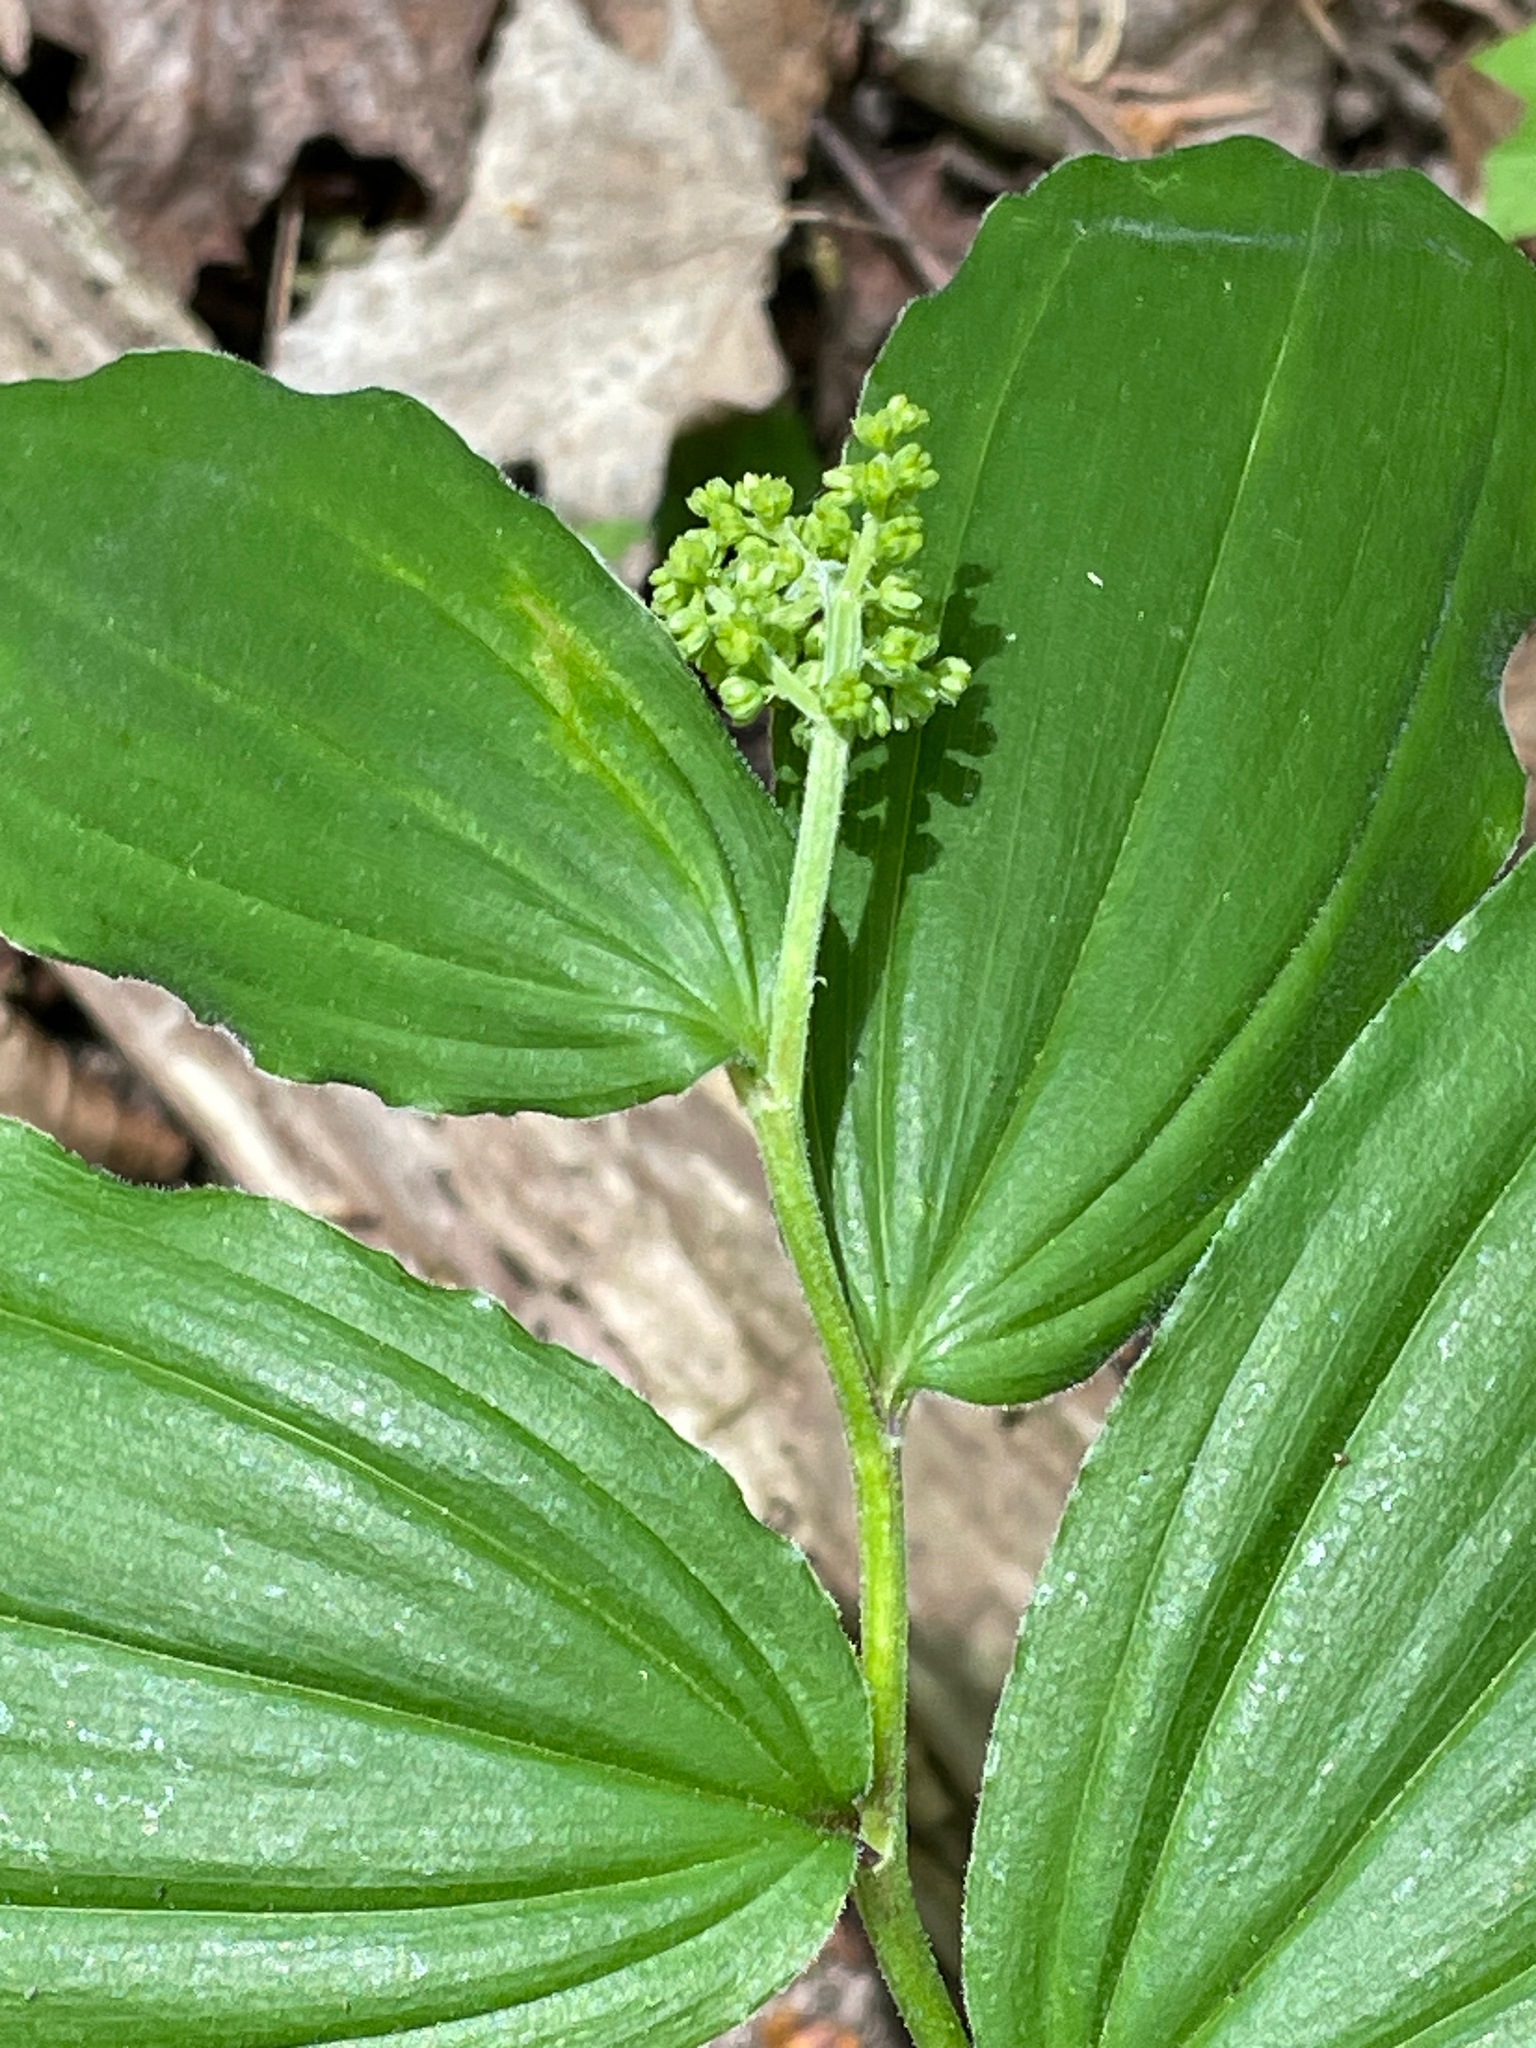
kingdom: Plantae
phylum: Tracheophyta
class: Liliopsida
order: Asparagales
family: Asparagaceae
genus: Maianthemum
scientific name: Maianthemum racemosum
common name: False spikenard
